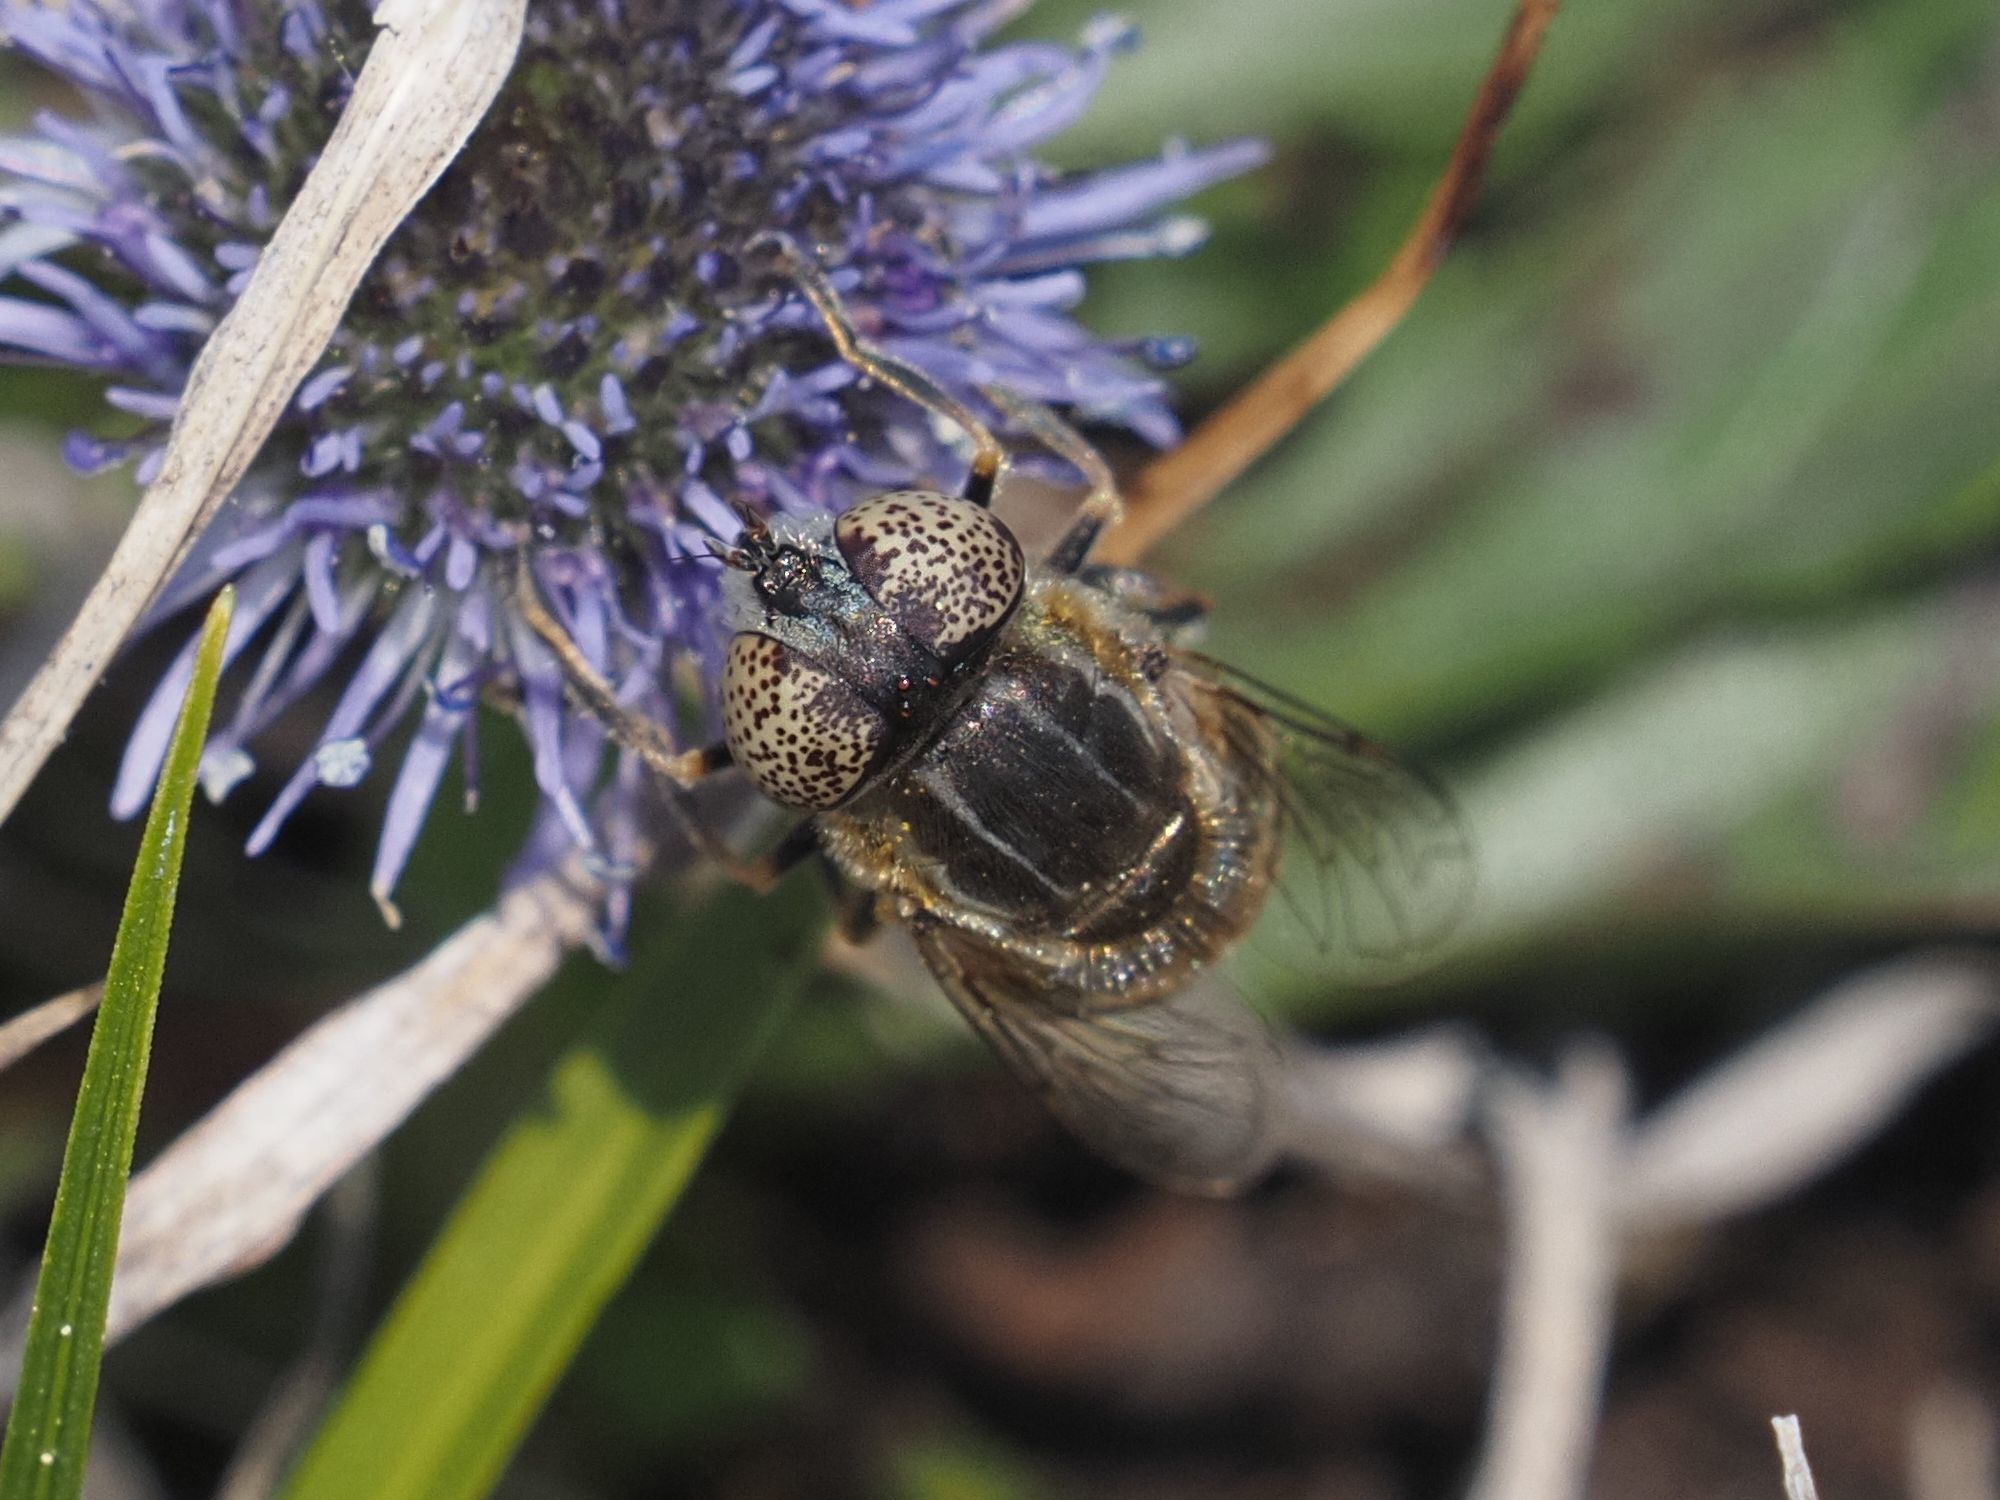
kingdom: Animalia
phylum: Arthropoda
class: Insecta
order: Diptera
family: Syrphidae
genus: Eristalinus
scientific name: Eristalinus aeneus
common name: Syrphid fly
